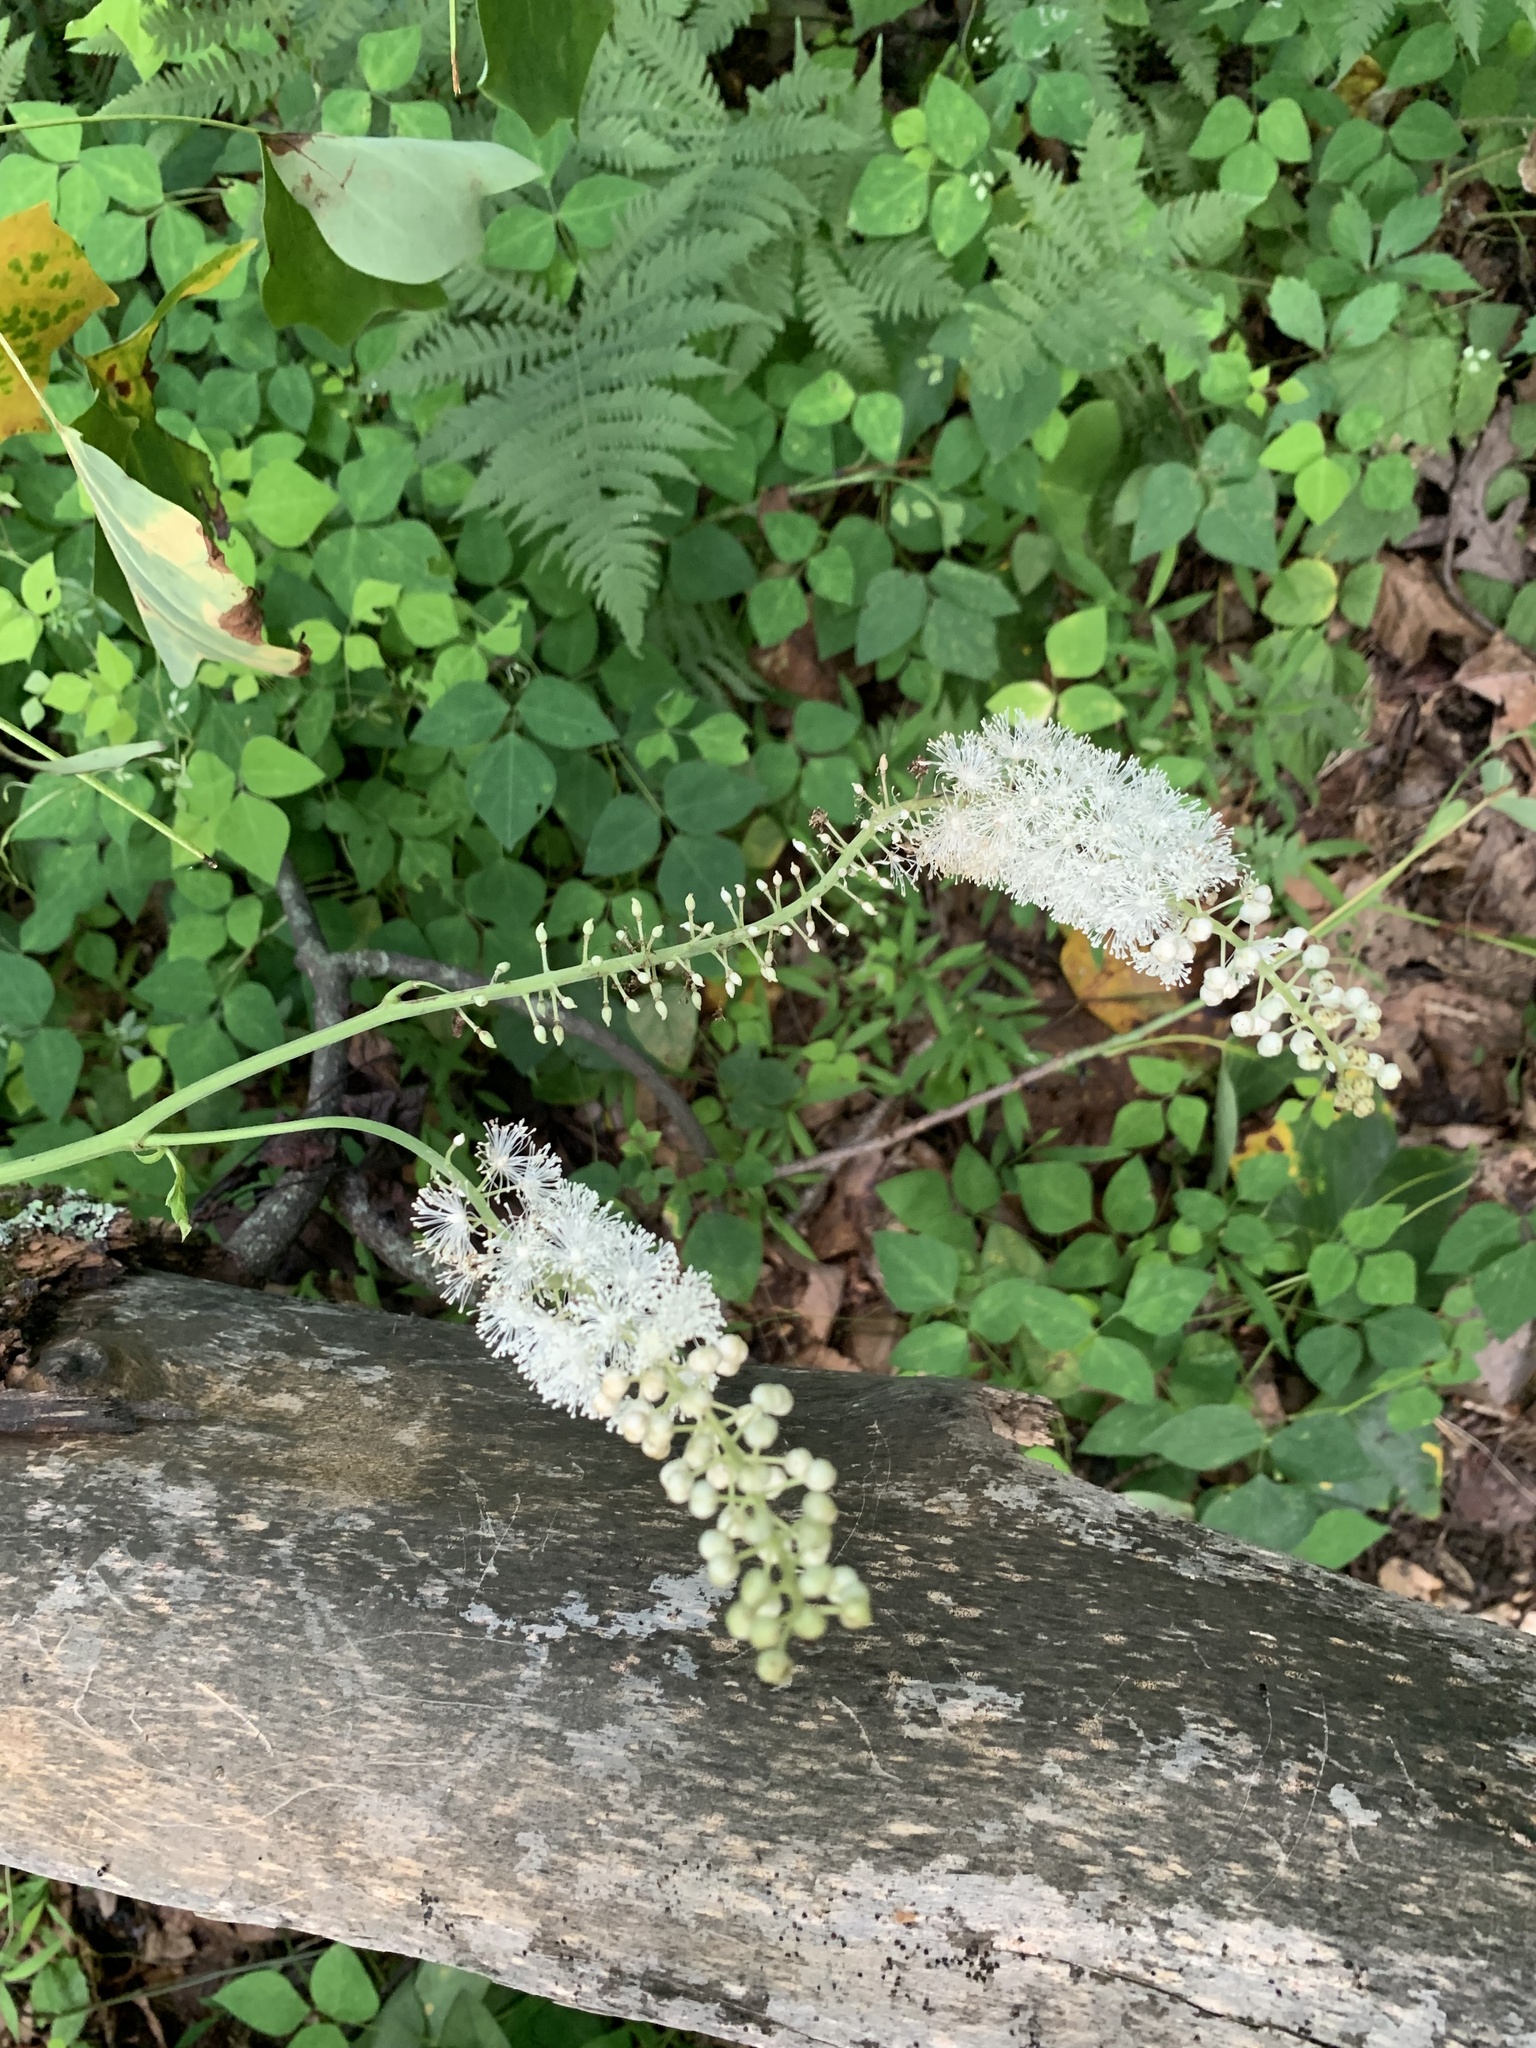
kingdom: Plantae
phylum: Tracheophyta
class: Magnoliopsida
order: Ranunculales
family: Ranunculaceae
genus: Actaea
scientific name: Actaea racemosa
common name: Black cohosh
